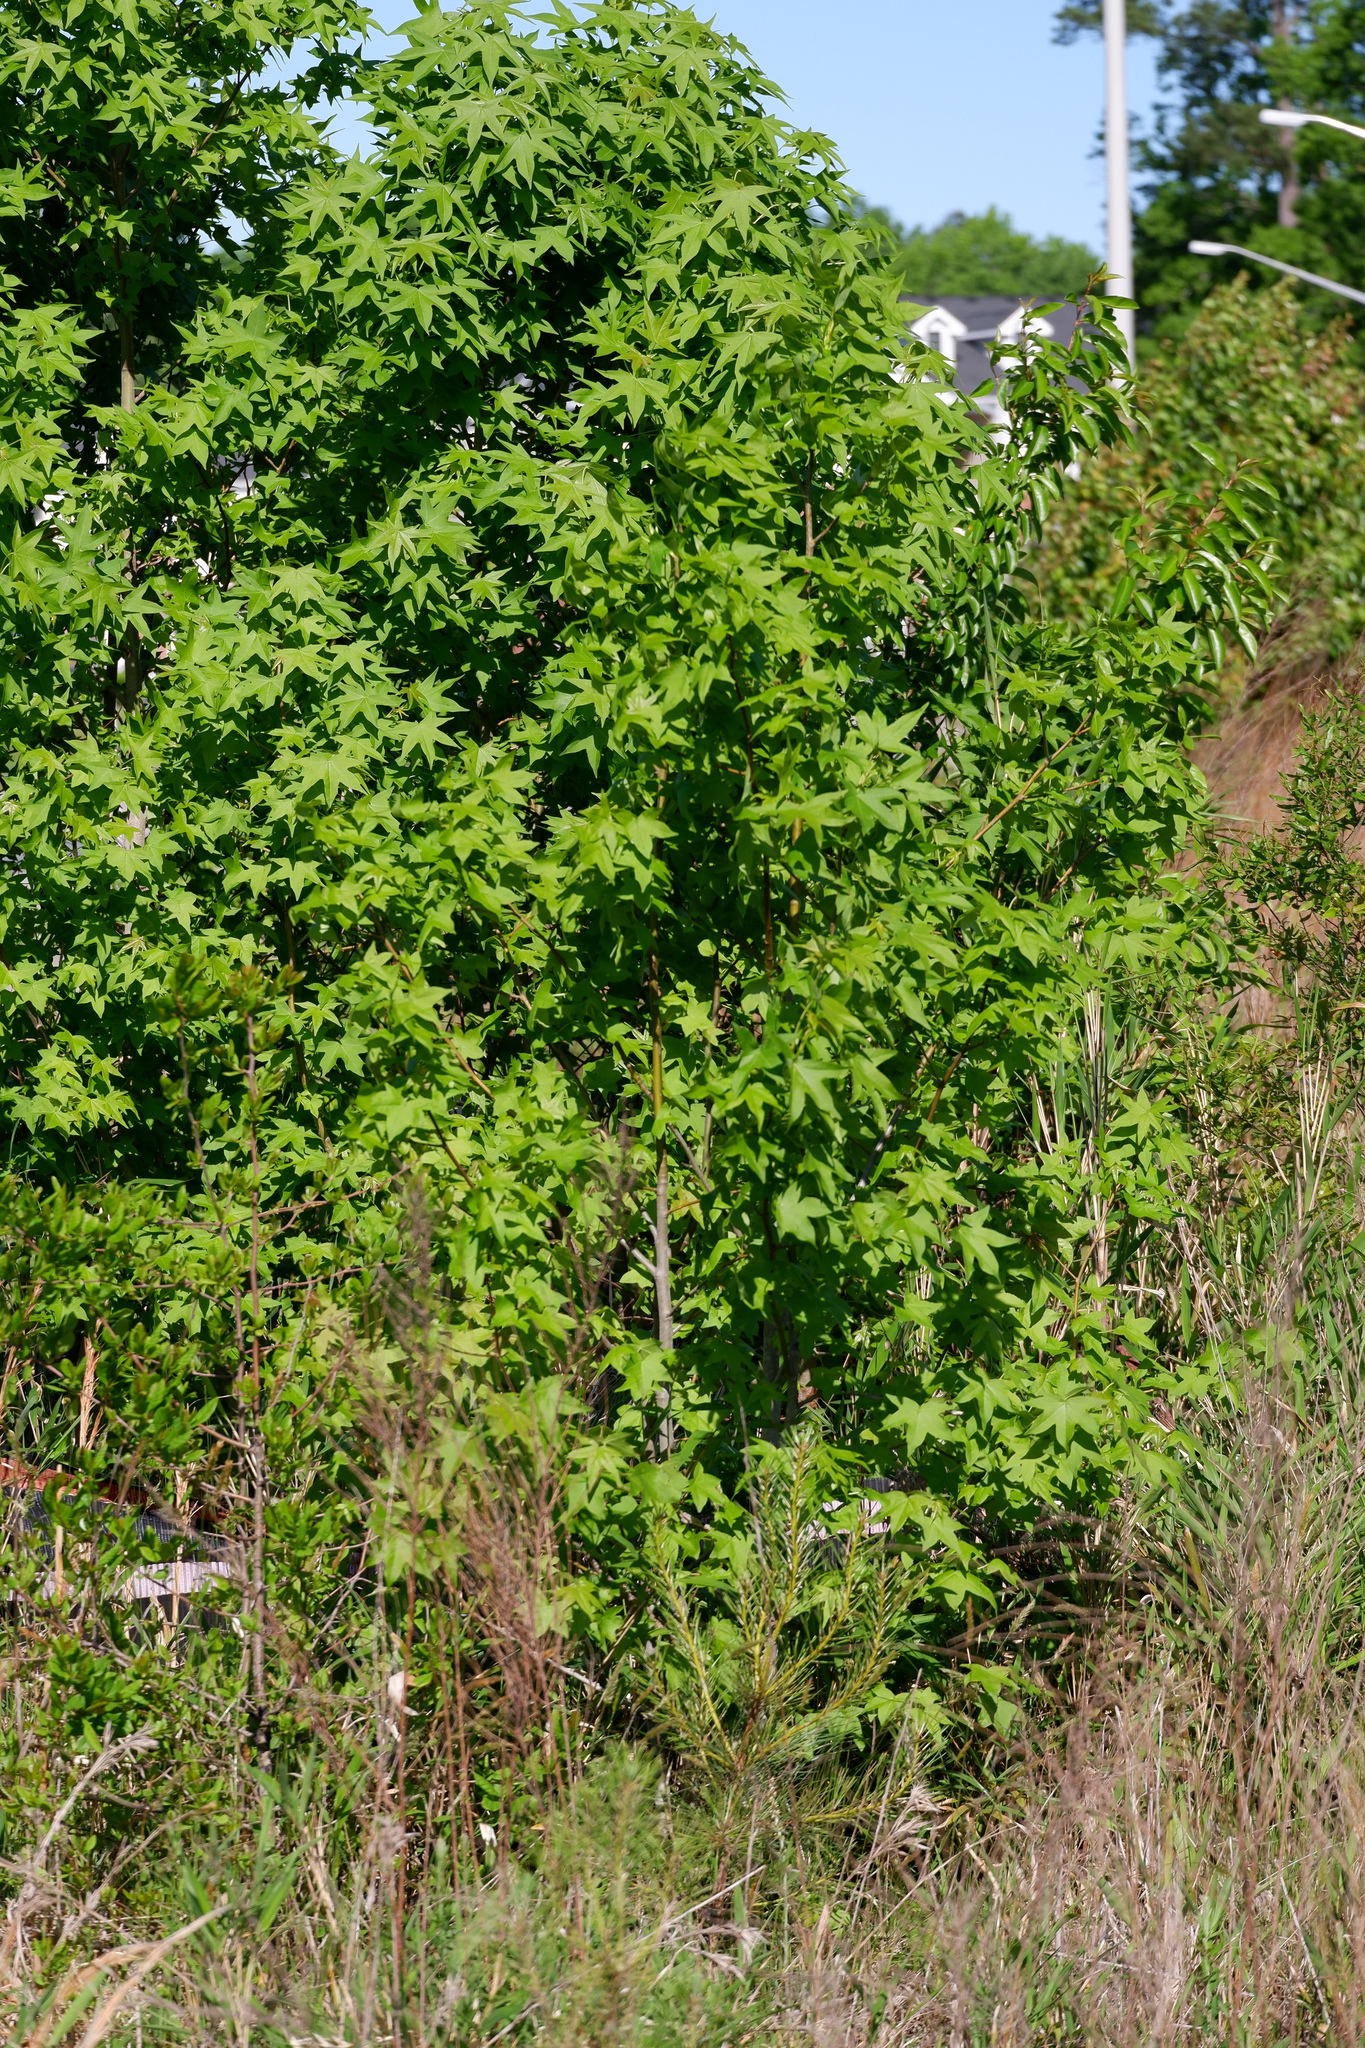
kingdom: Plantae
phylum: Tracheophyta
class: Magnoliopsida
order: Saxifragales
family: Altingiaceae
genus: Liquidambar
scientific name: Liquidambar styraciflua
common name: Sweet gum
